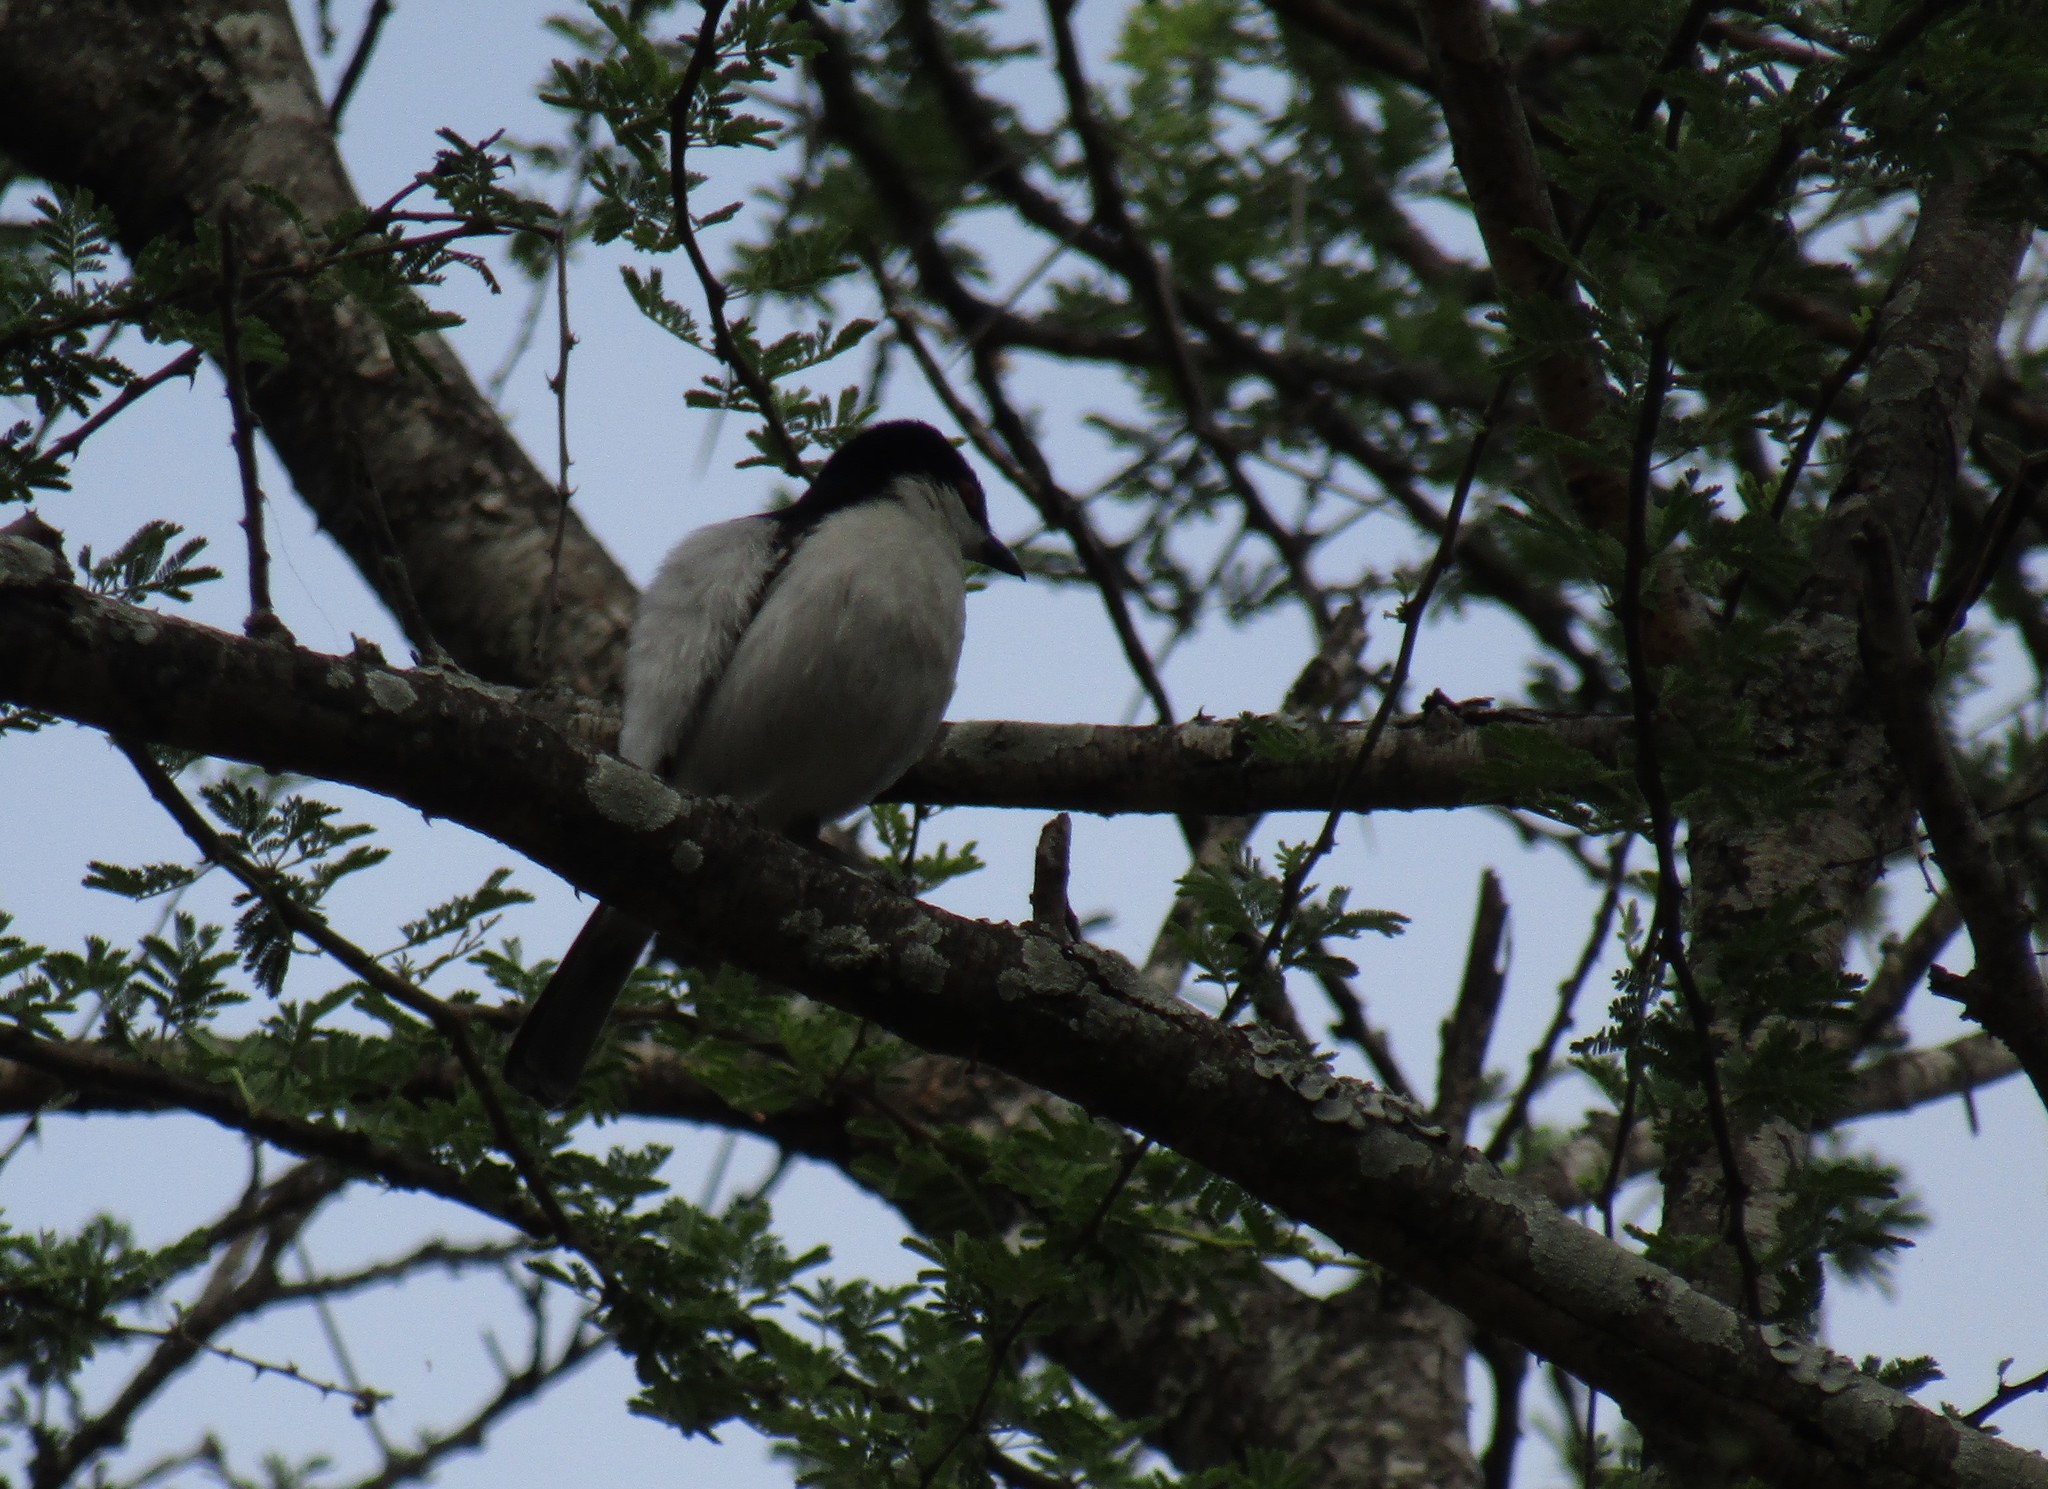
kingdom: Animalia
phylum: Chordata
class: Aves
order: Passeriformes
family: Malaconotidae
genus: Dryoscopus
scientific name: Dryoscopus cubla
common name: Black-backed puffback
